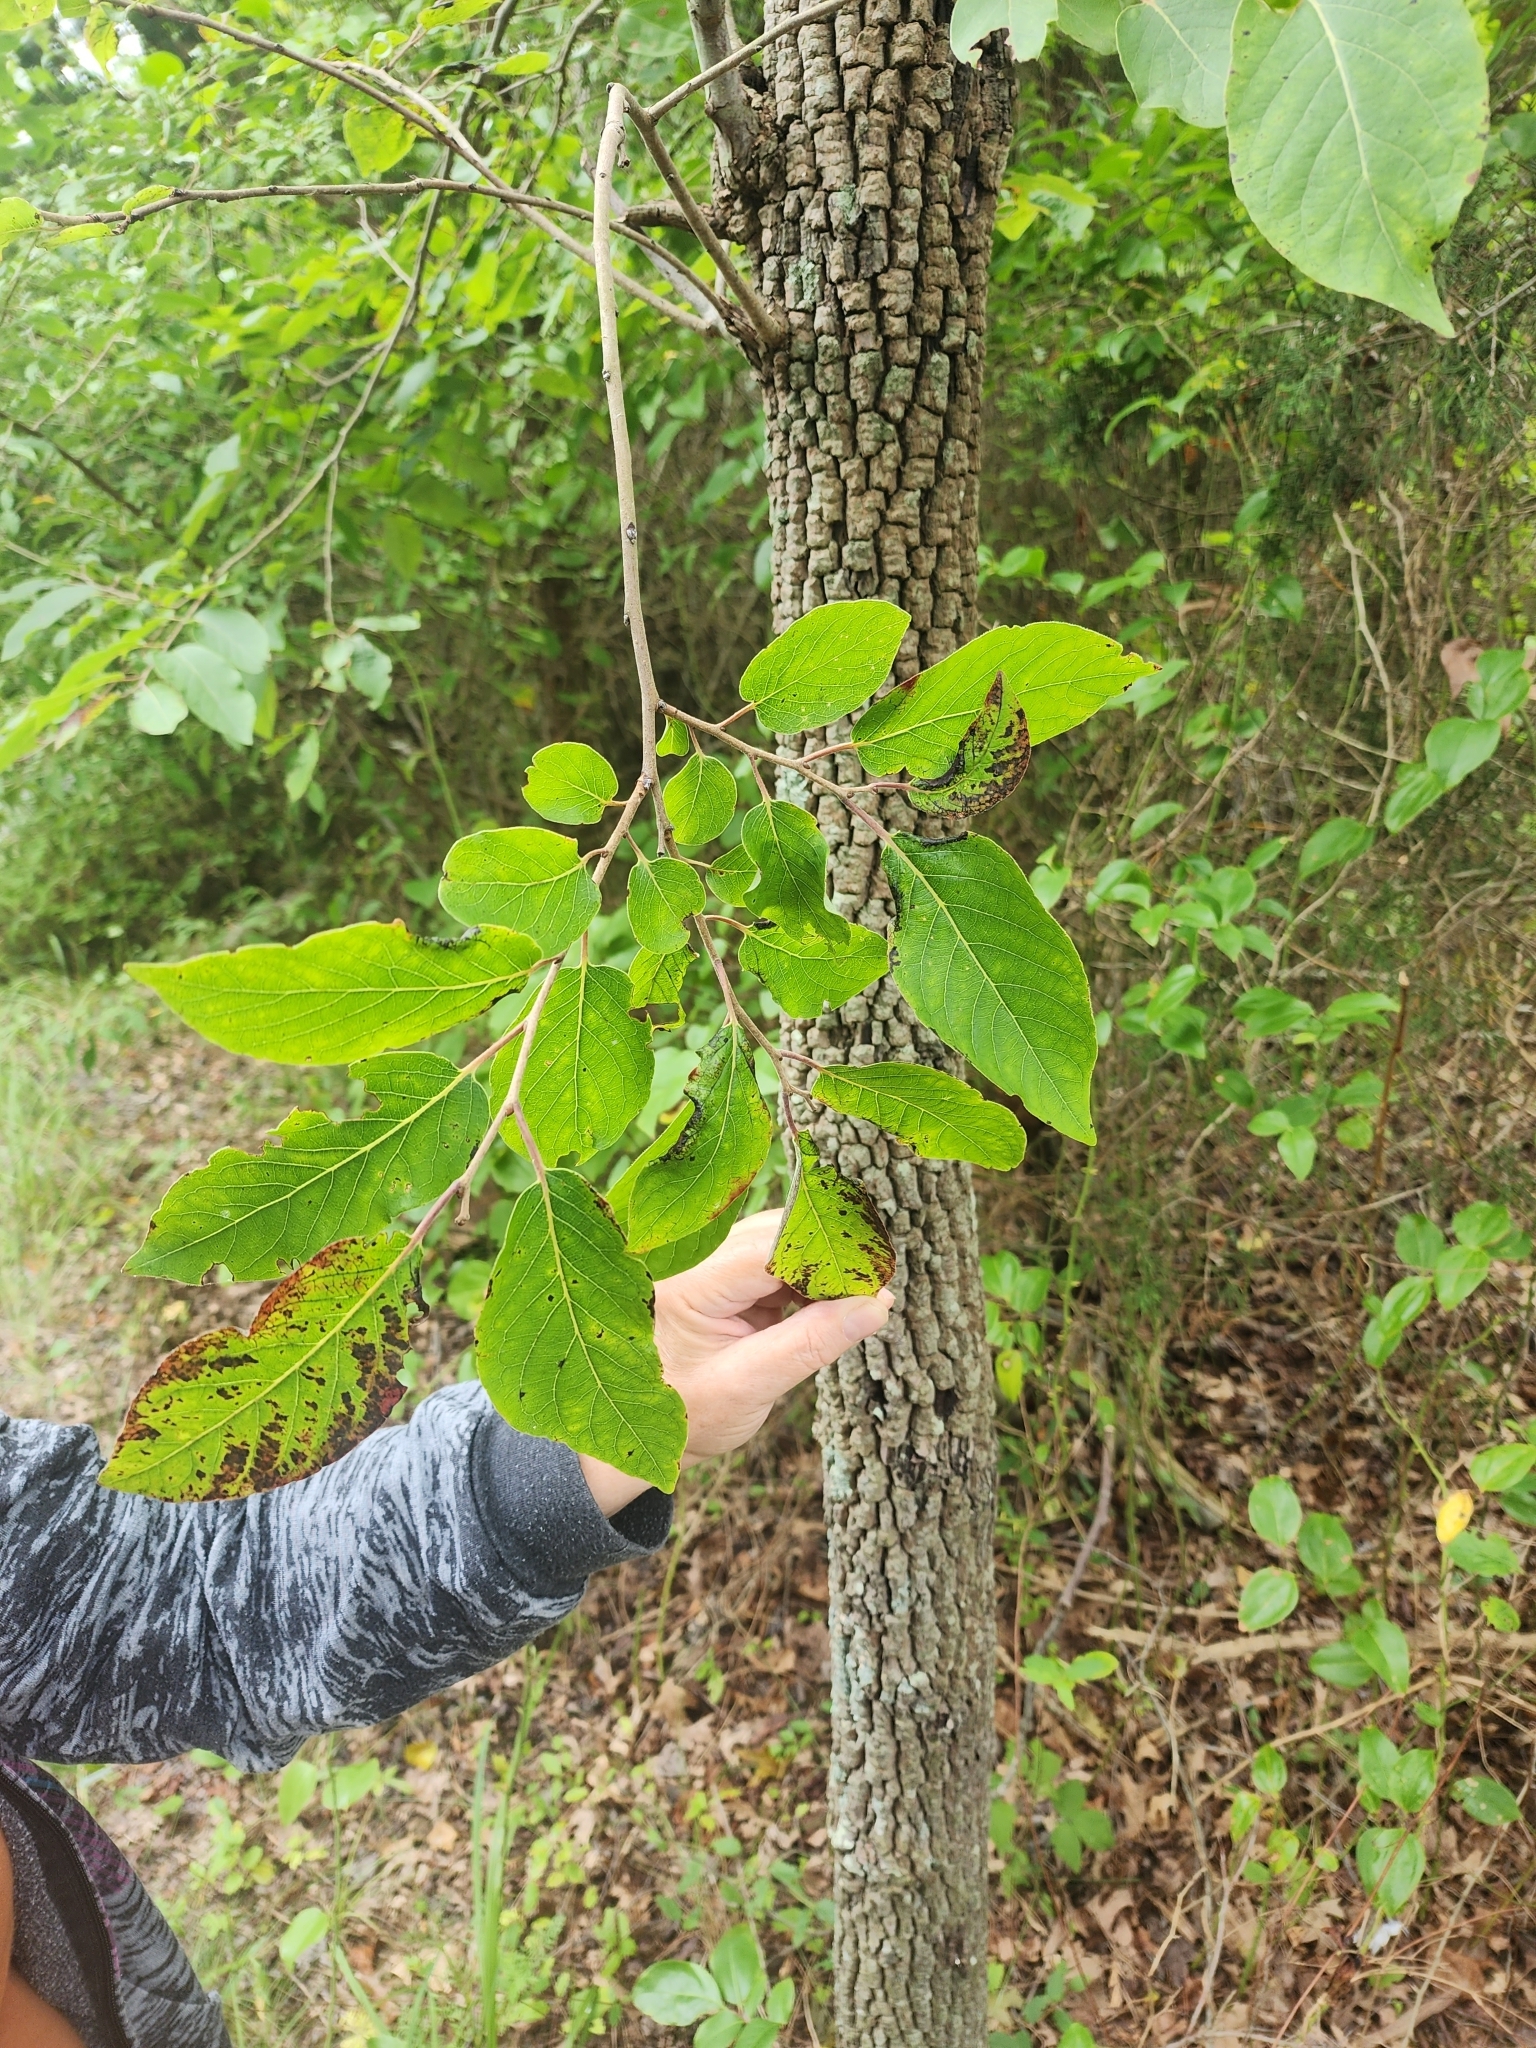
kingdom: Plantae
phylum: Tracheophyta
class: Magnoliopsida
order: Ericales
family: Ebenaceae
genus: Diospyros
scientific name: Diospyros virginiana
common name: Persimmon
